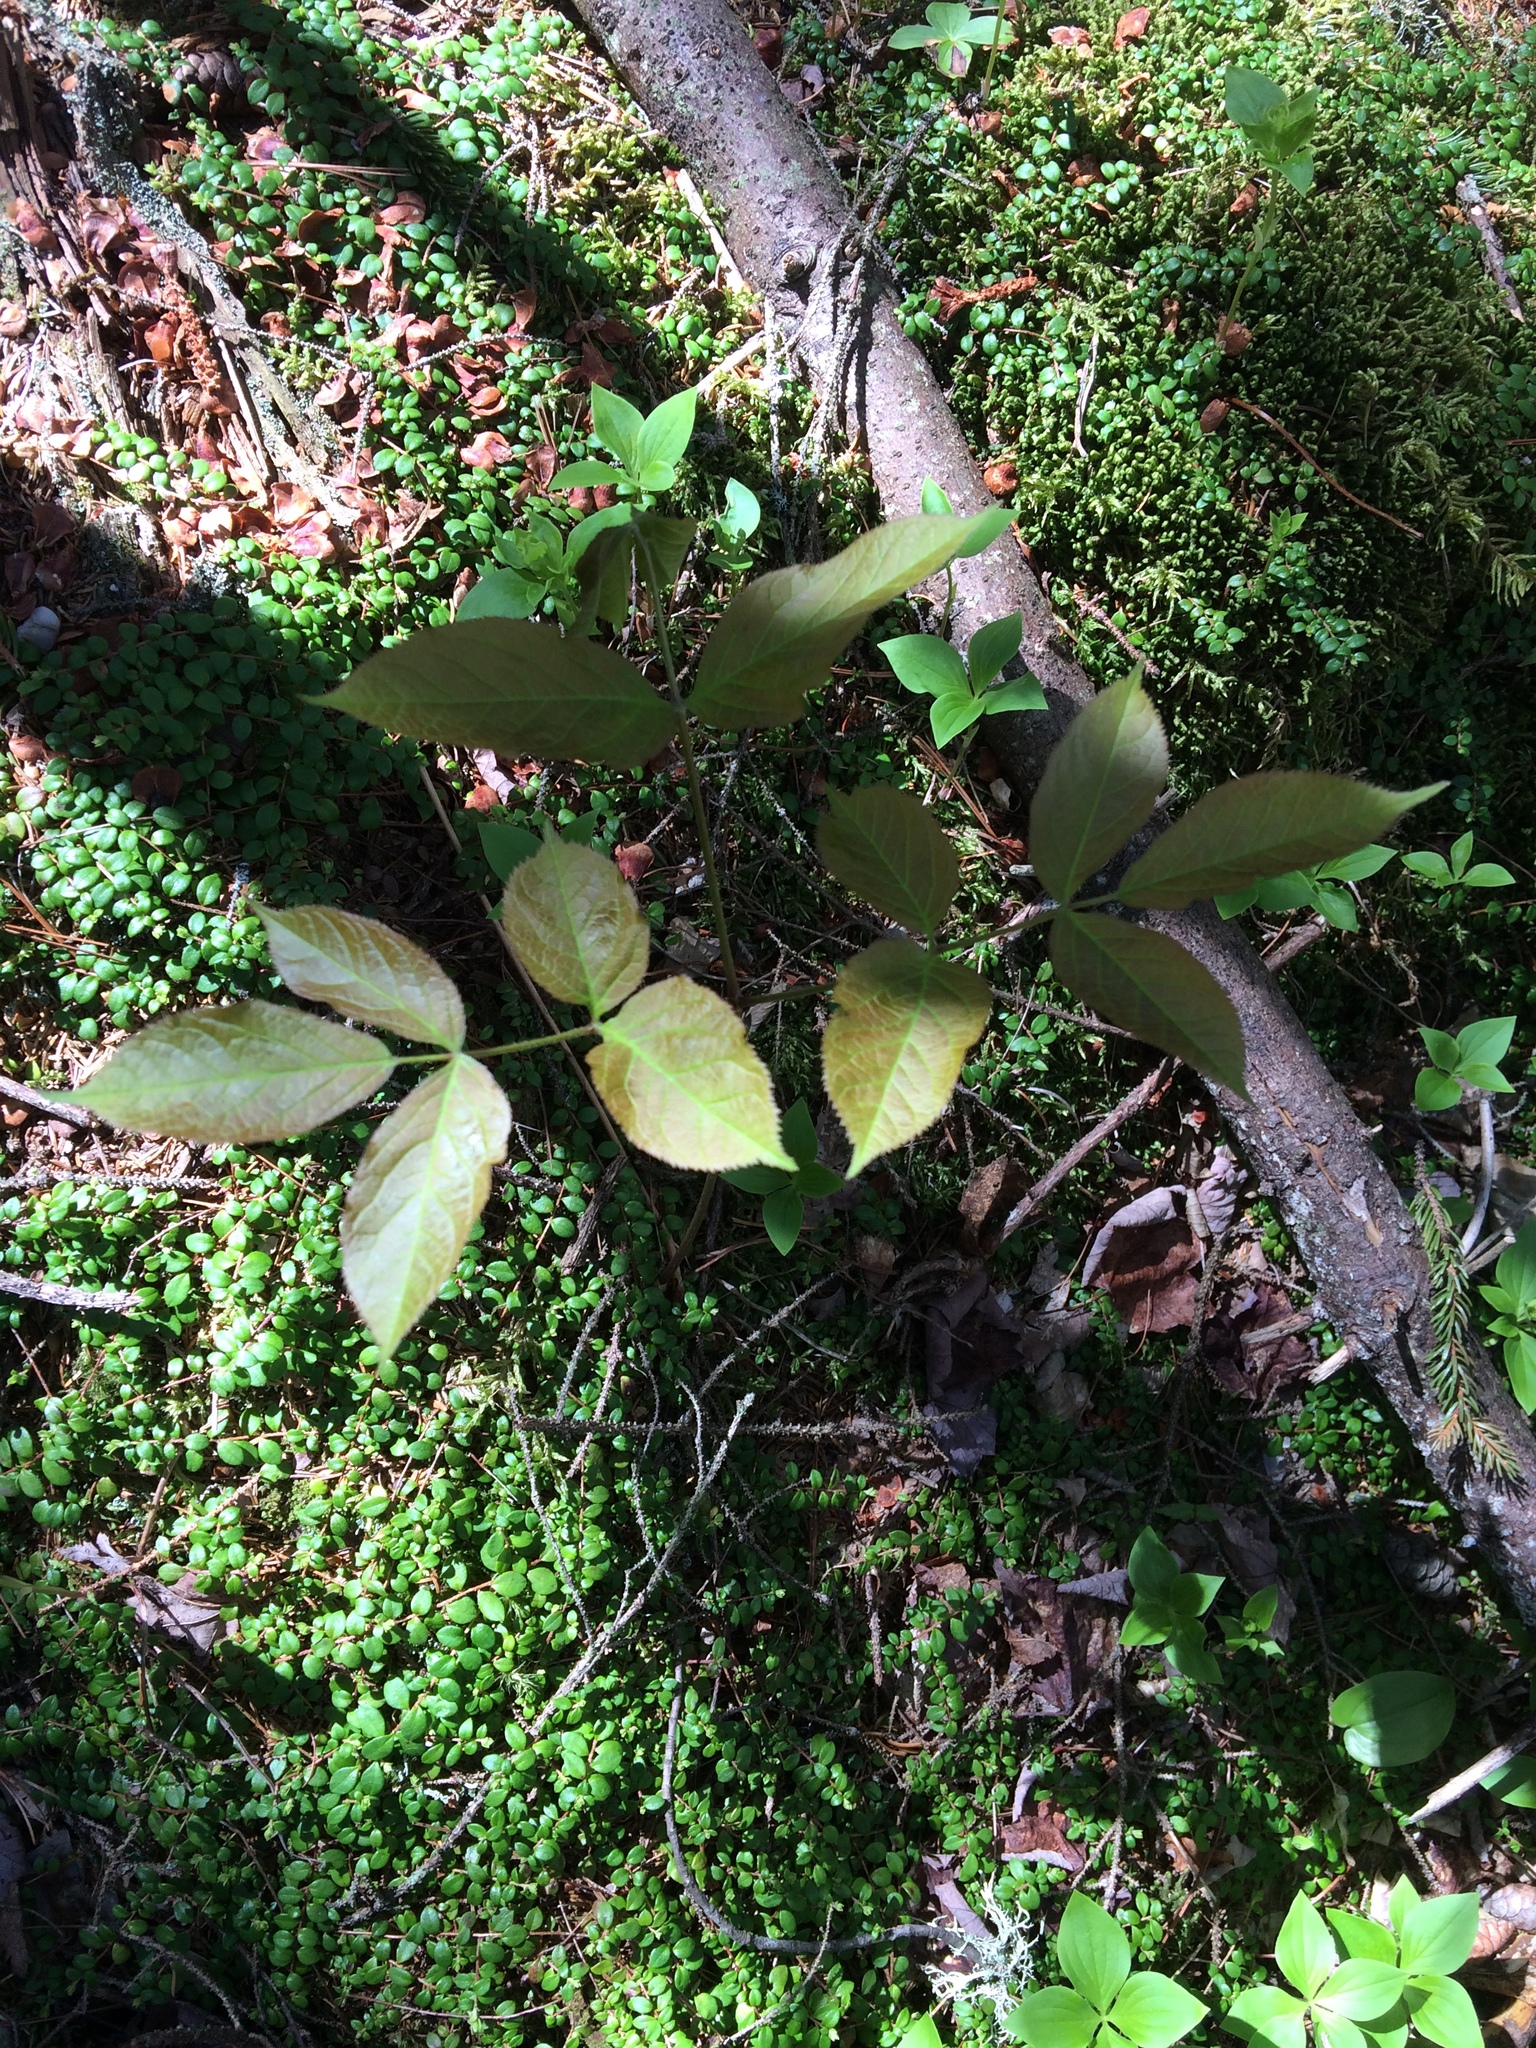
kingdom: Plantae
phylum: Tracheophyta
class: Magnoliopsida
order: Apiales
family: Araliaceae
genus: Aralia
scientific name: Aralia nudicaulis
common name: Wild sarsaparilla
